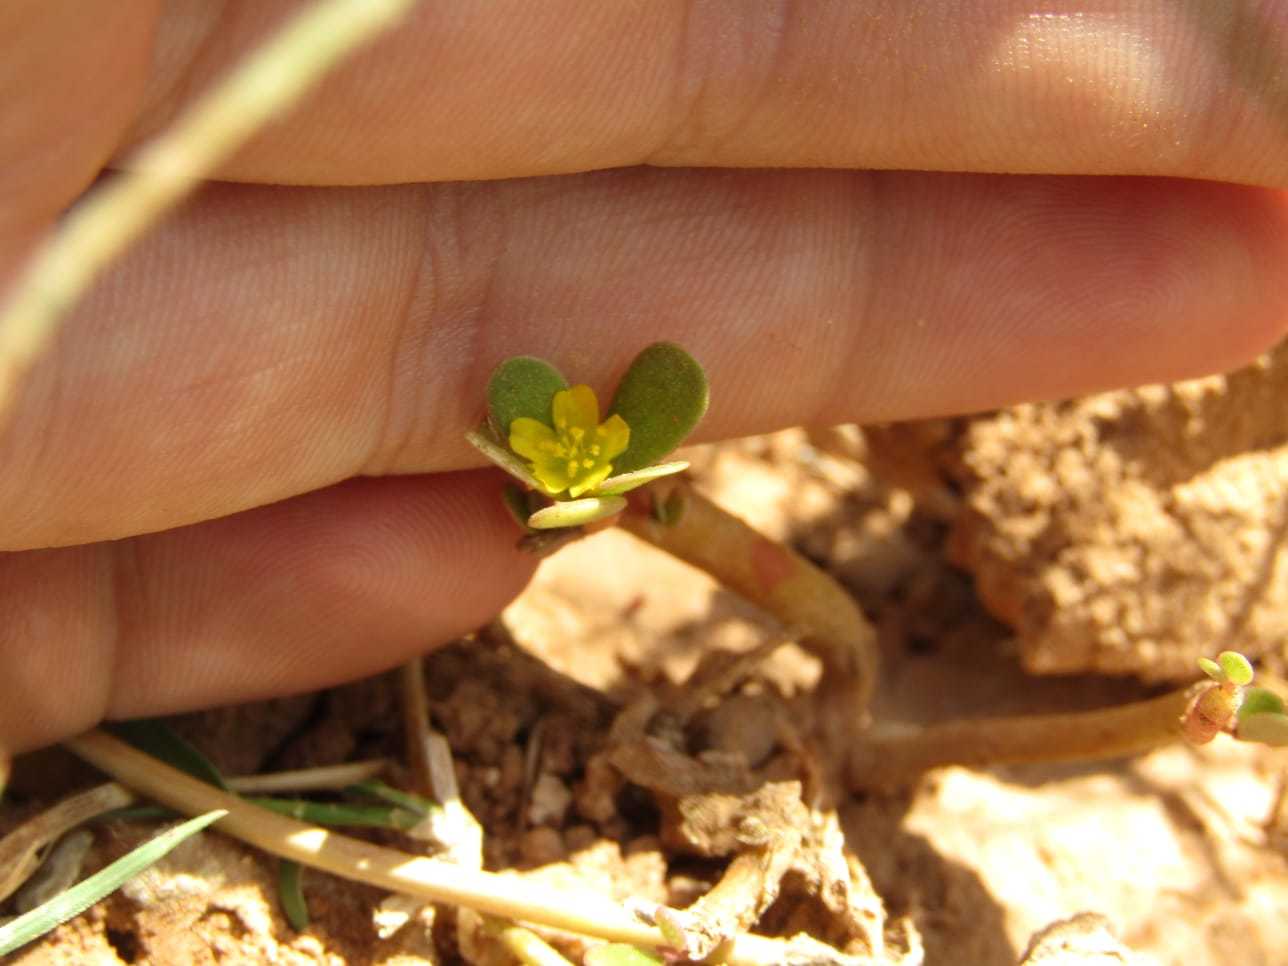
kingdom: Plantae
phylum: Tracheophyta
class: Magnoliopsida
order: Caryophyllales
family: Portulacaceae
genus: Portulaca
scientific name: Portulaca oleracea
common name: Common purslane
